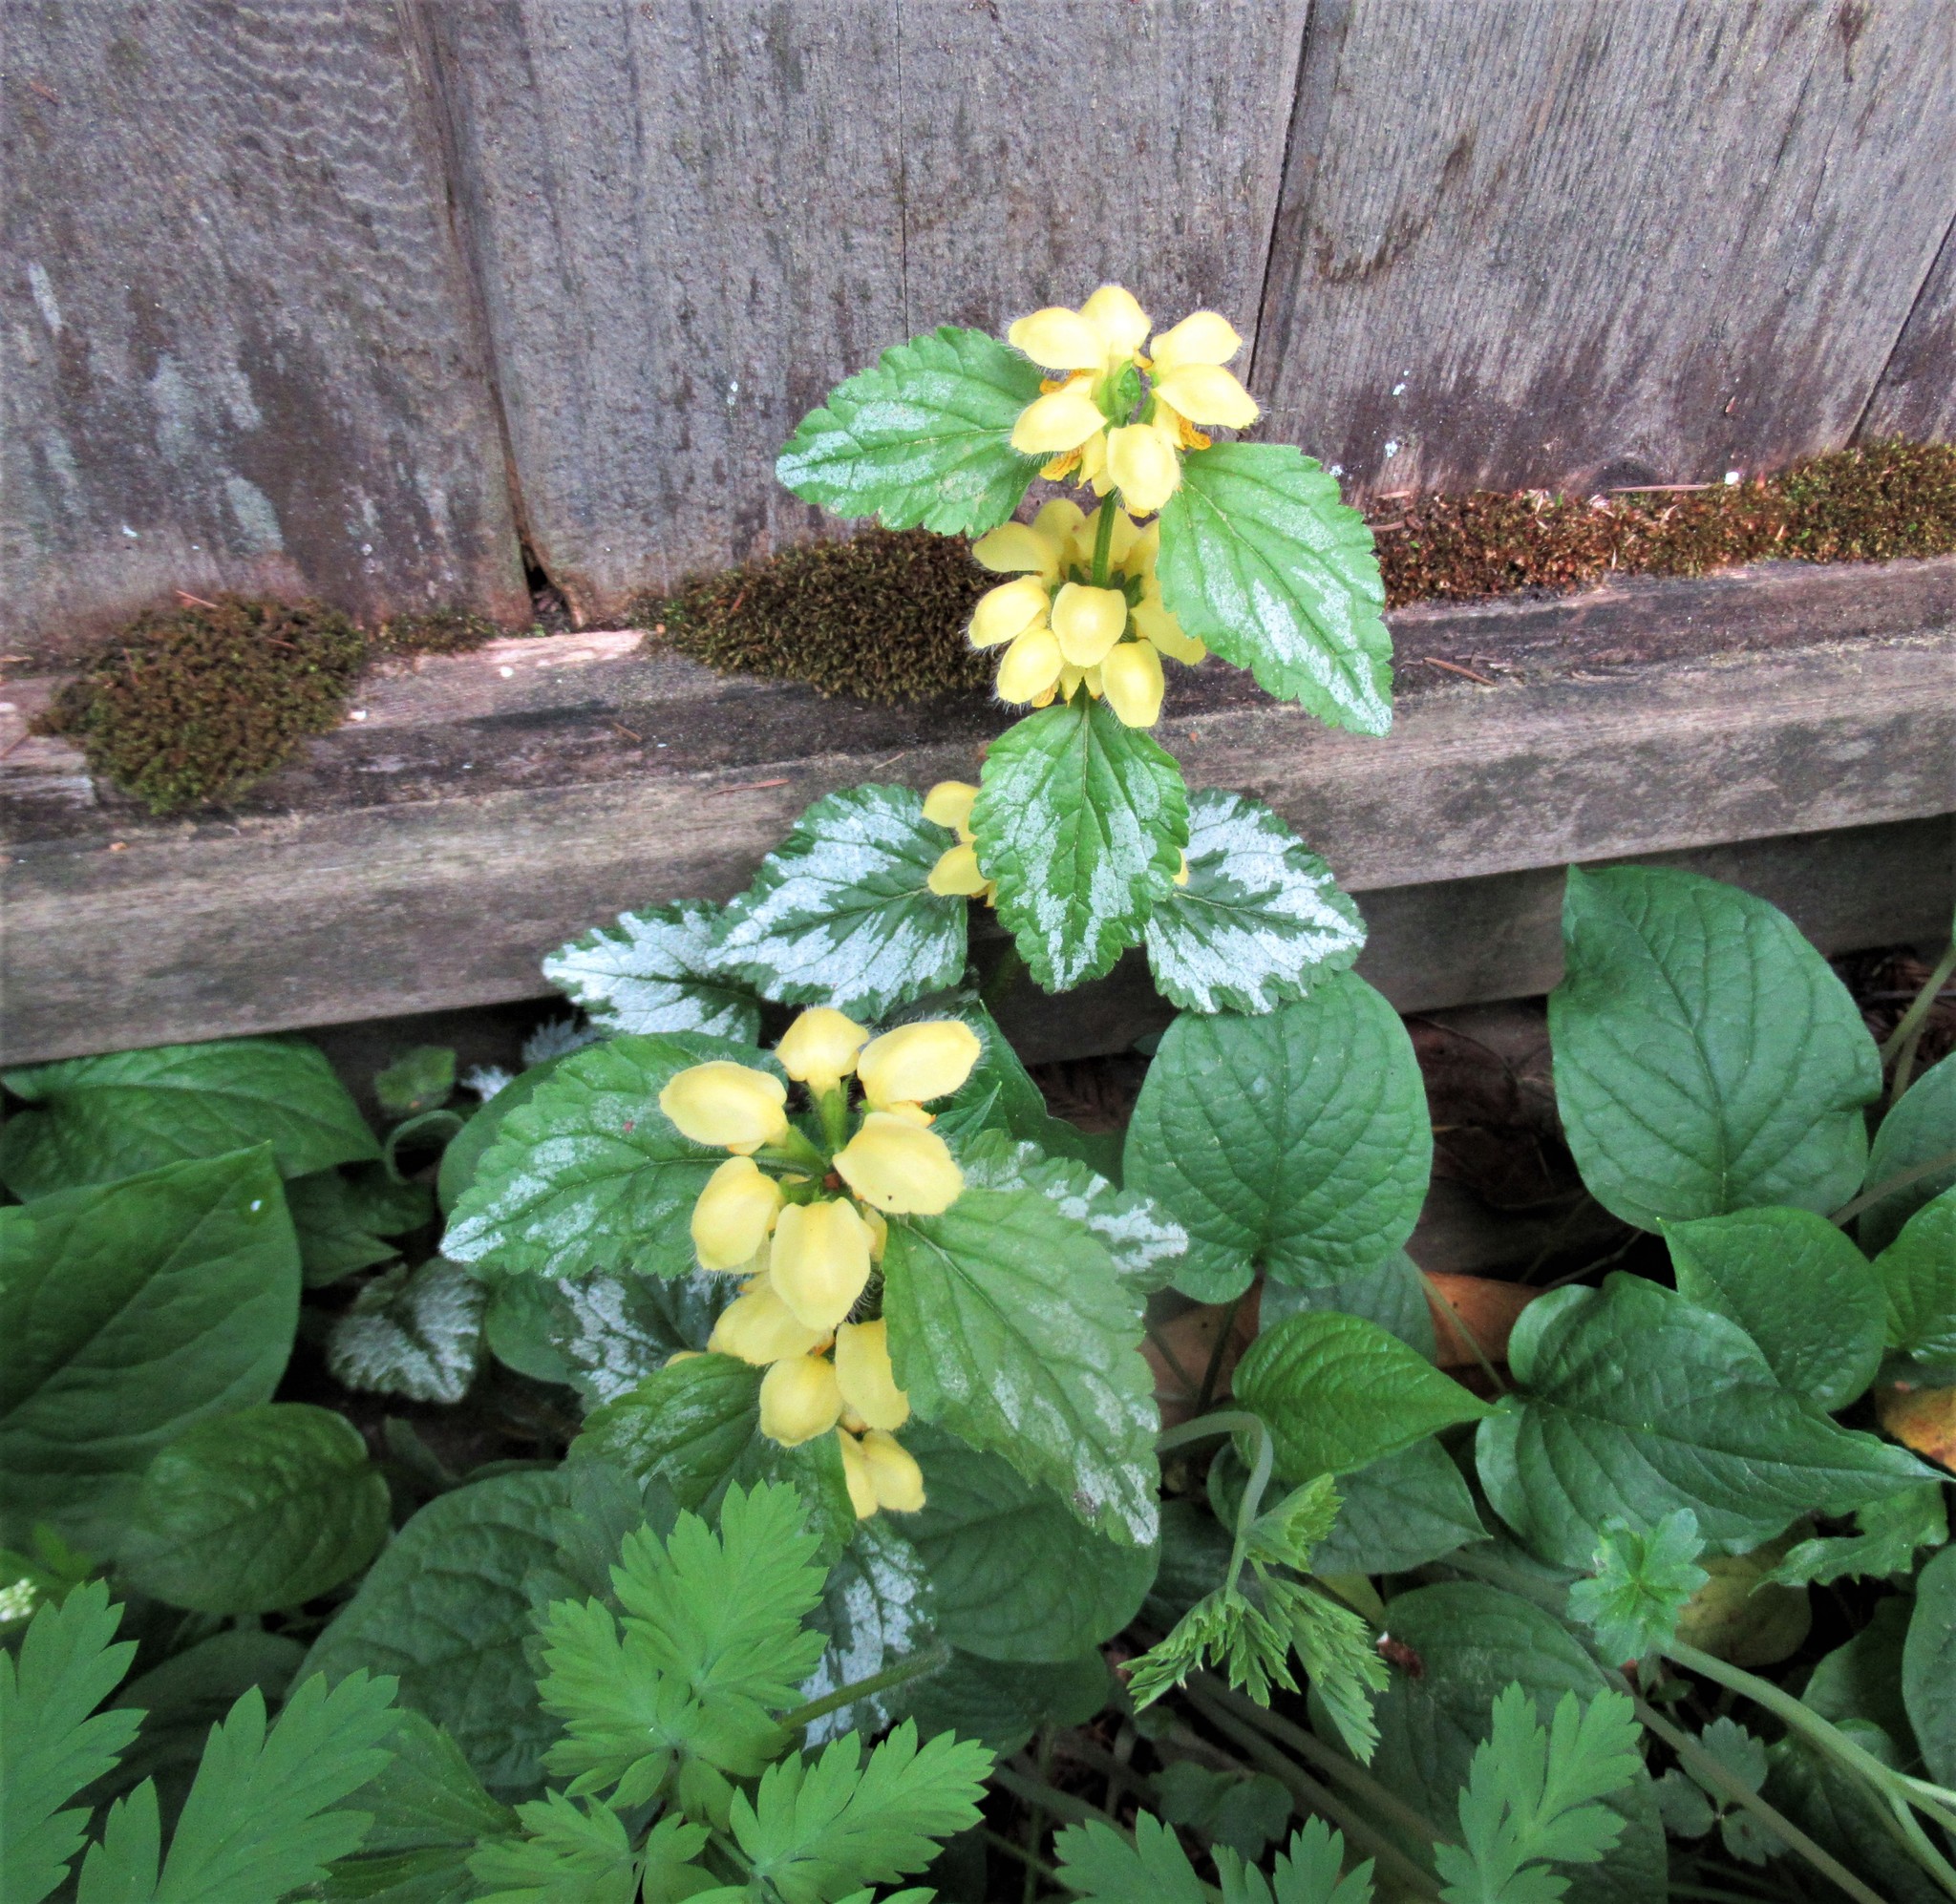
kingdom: Plantae
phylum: Tracheophyta
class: Magnoliopsida
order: Lamiales
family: Lamiaceae
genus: Lamium
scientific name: Lamium galeobdolon
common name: Yellow archangel
